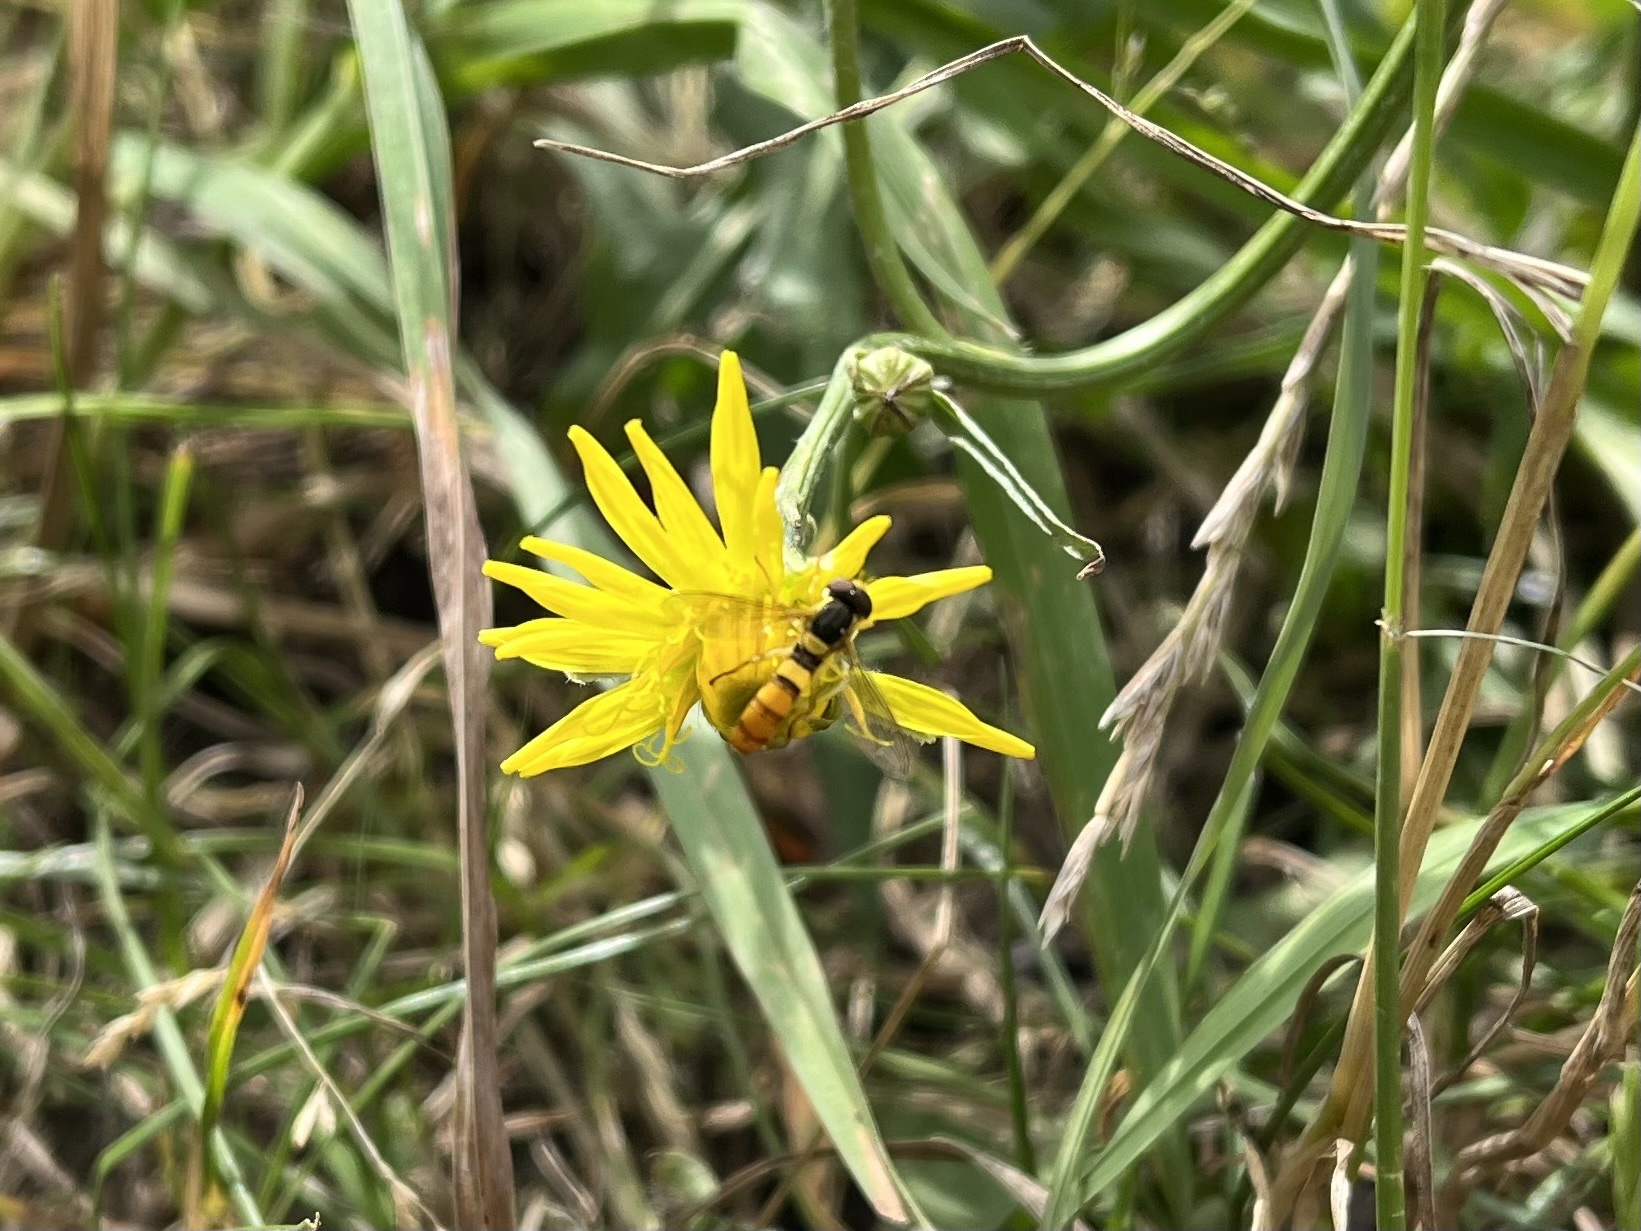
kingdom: Animalia
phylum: Arthropoda
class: Insecta
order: Diptera
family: Syrphidae
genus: Sphaerophoria
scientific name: Sphaerophoria scripta
